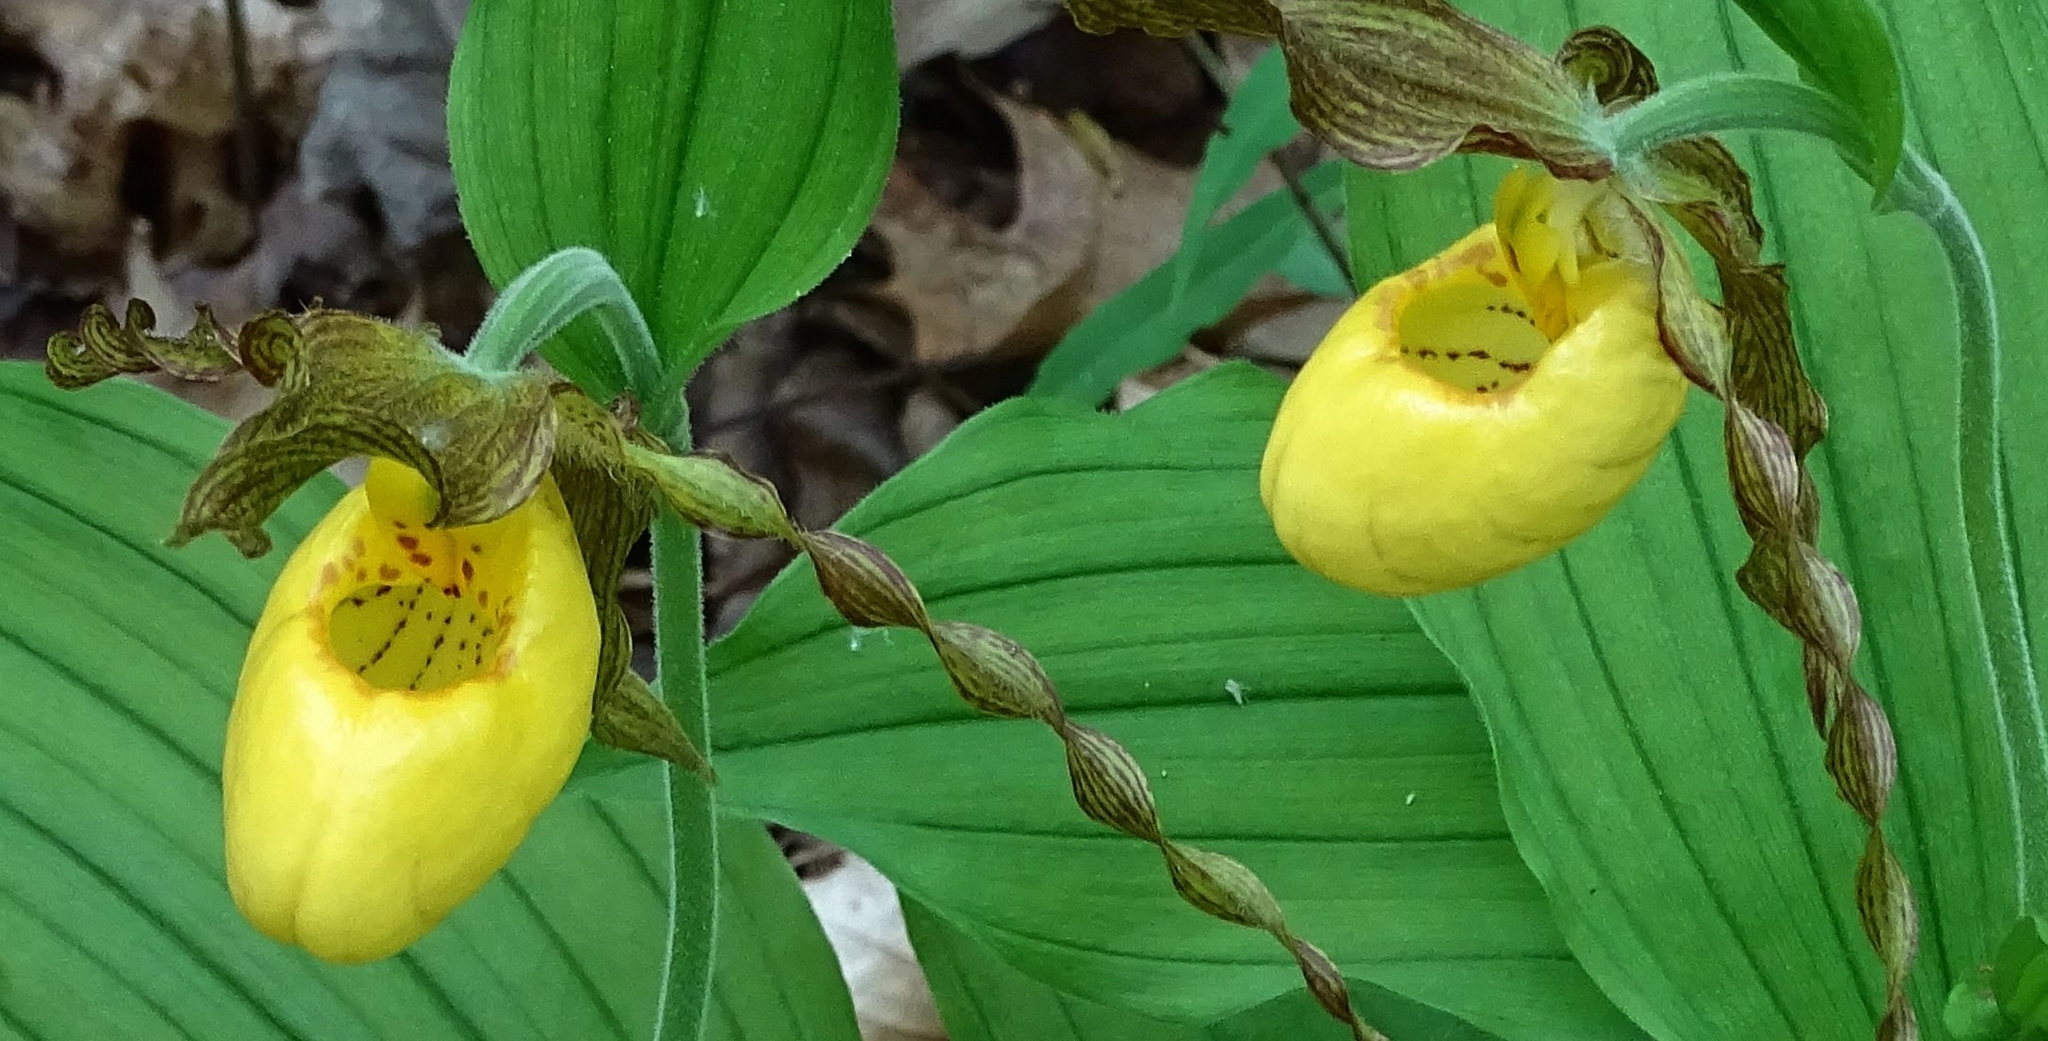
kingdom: Plantae
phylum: Tracheophyta
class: Liliopsida
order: Asparagales
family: Orchidaceae
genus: Cypripedium
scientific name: Cypripedium parviflorum
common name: American yellow lady's-slipper
